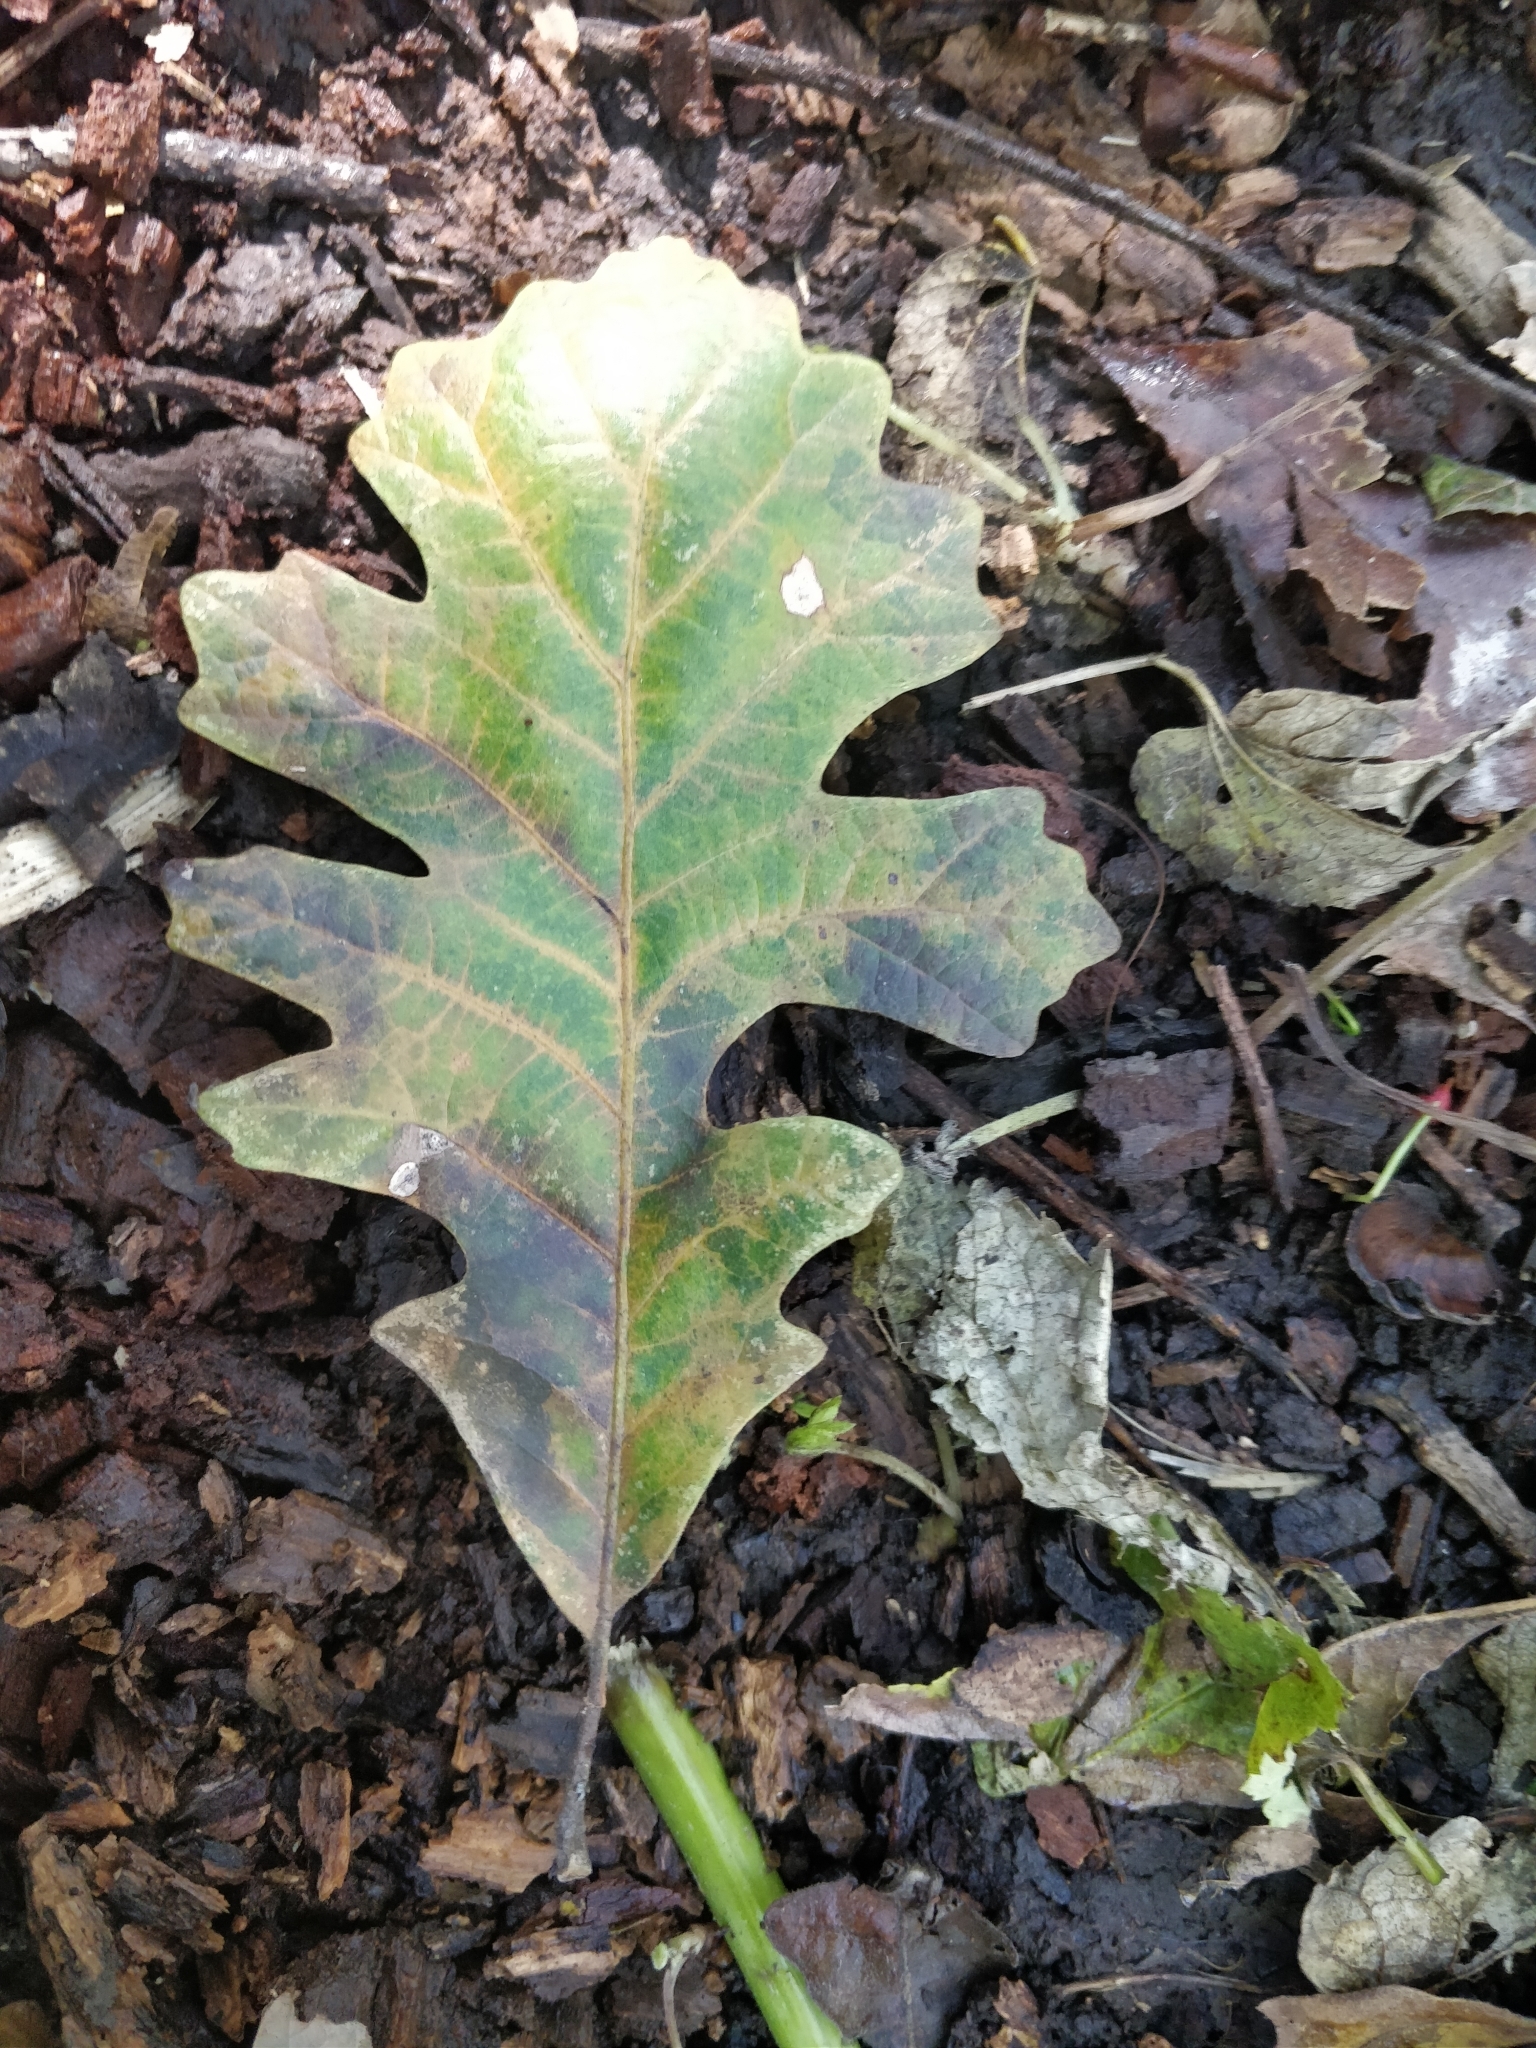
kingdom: Plantae
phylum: Tracheophyta
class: Magnoliopsida
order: Fagales
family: Fagaceae
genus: Quercus
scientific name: Quercus macrocarpa
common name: Bur oak
